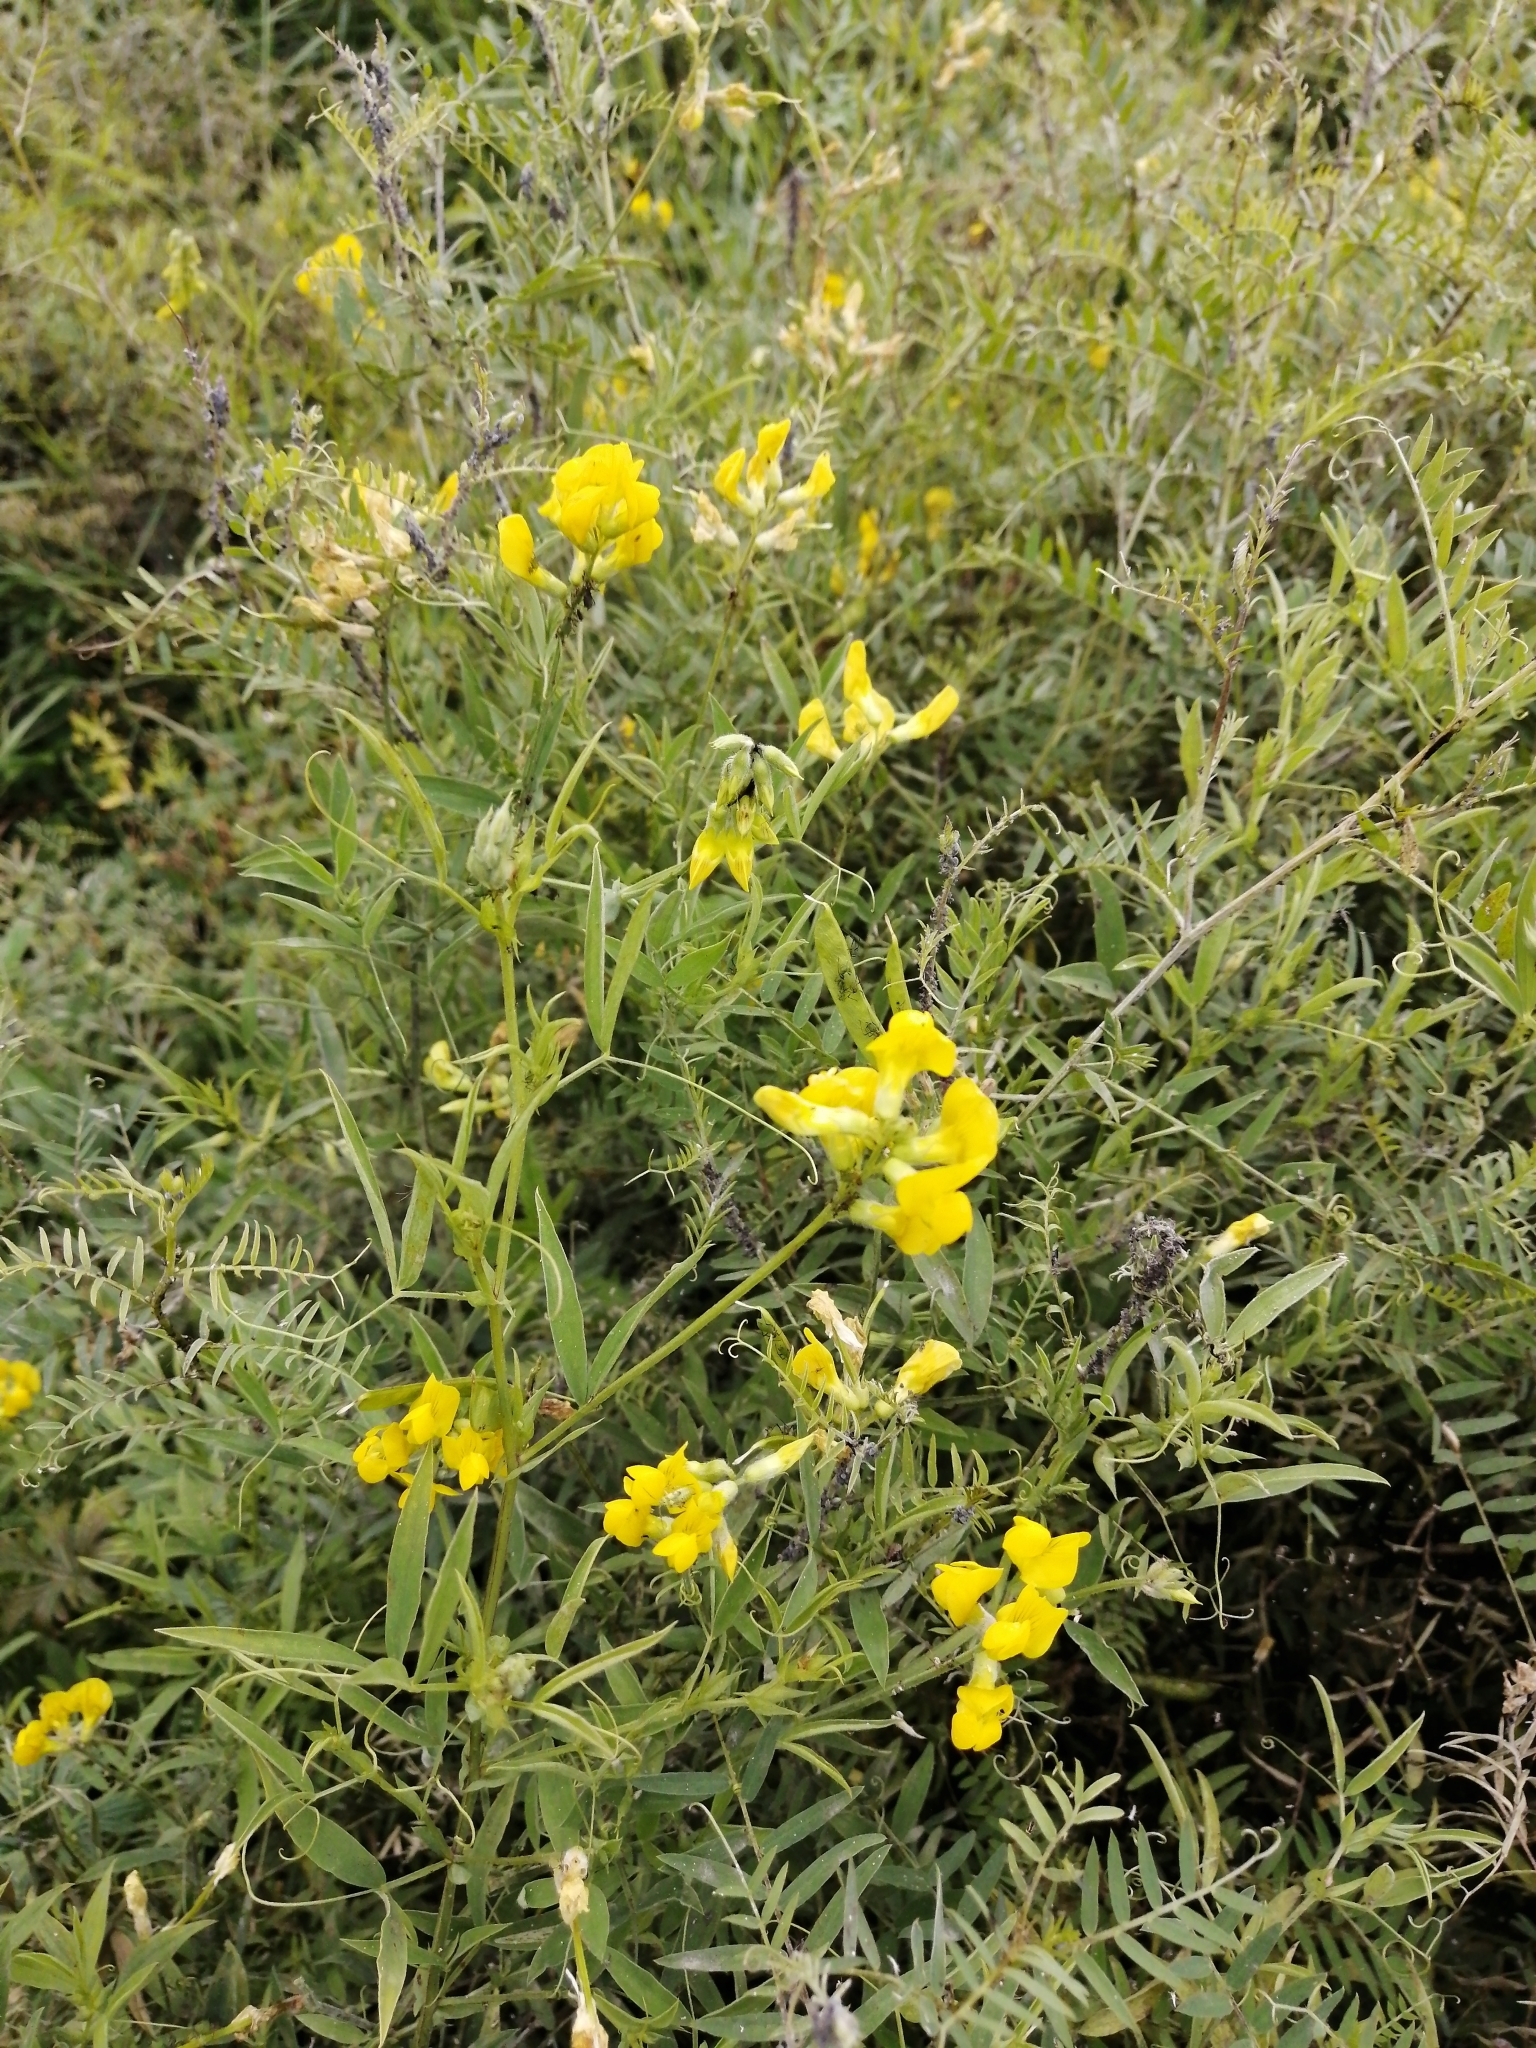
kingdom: Plantae
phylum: Tracheophyta
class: Magnoliopsida
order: Fabales
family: Fabaceae
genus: Lathyrus
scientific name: Lathyrus pratensis
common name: Meadow vetchling
